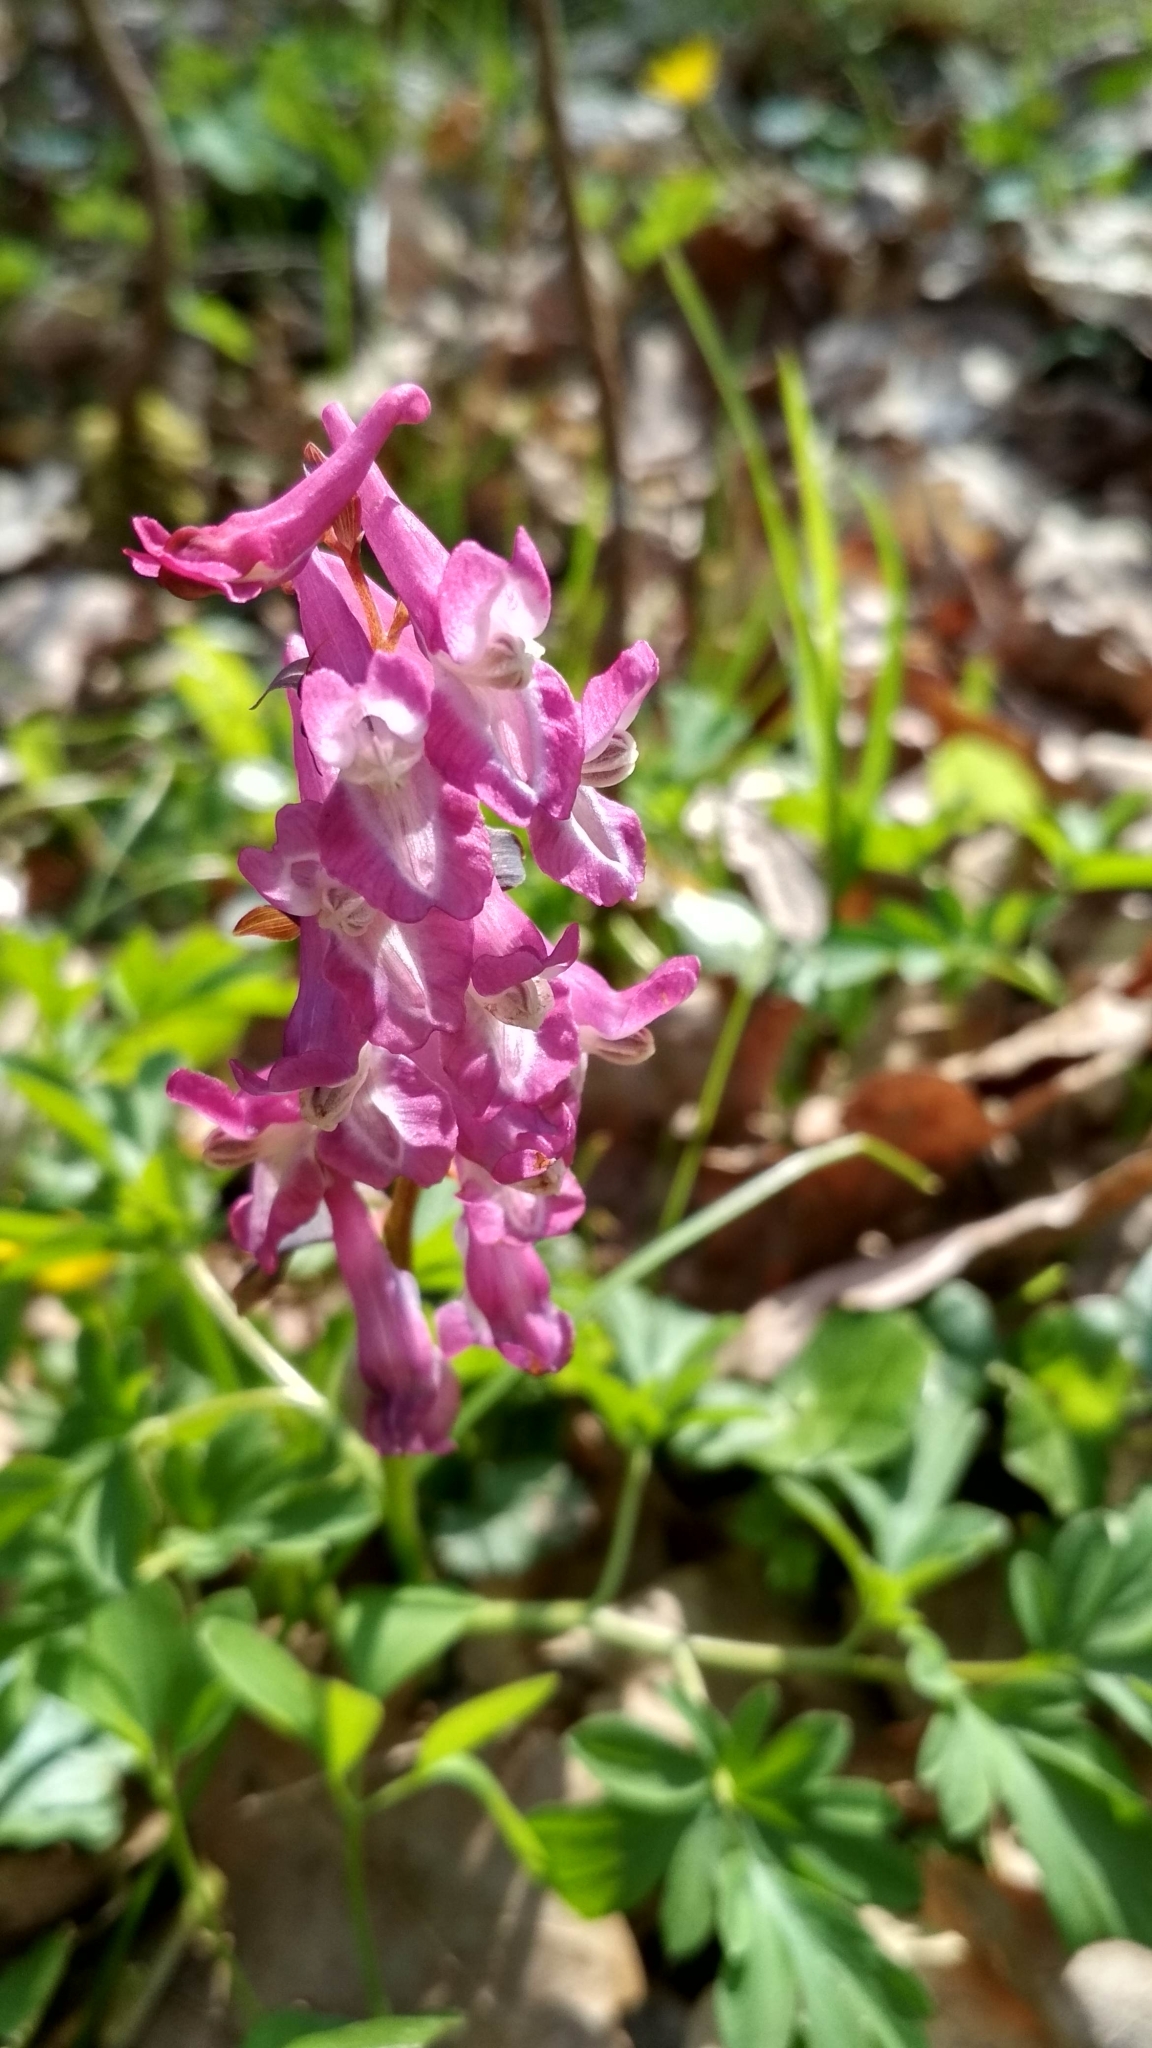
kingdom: Plantae
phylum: Tracheophyta
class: Magnoliopsida
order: Ranunculales
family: Papaveraceae
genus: Corydalis
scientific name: Corydalis cava
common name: Hollowroot
